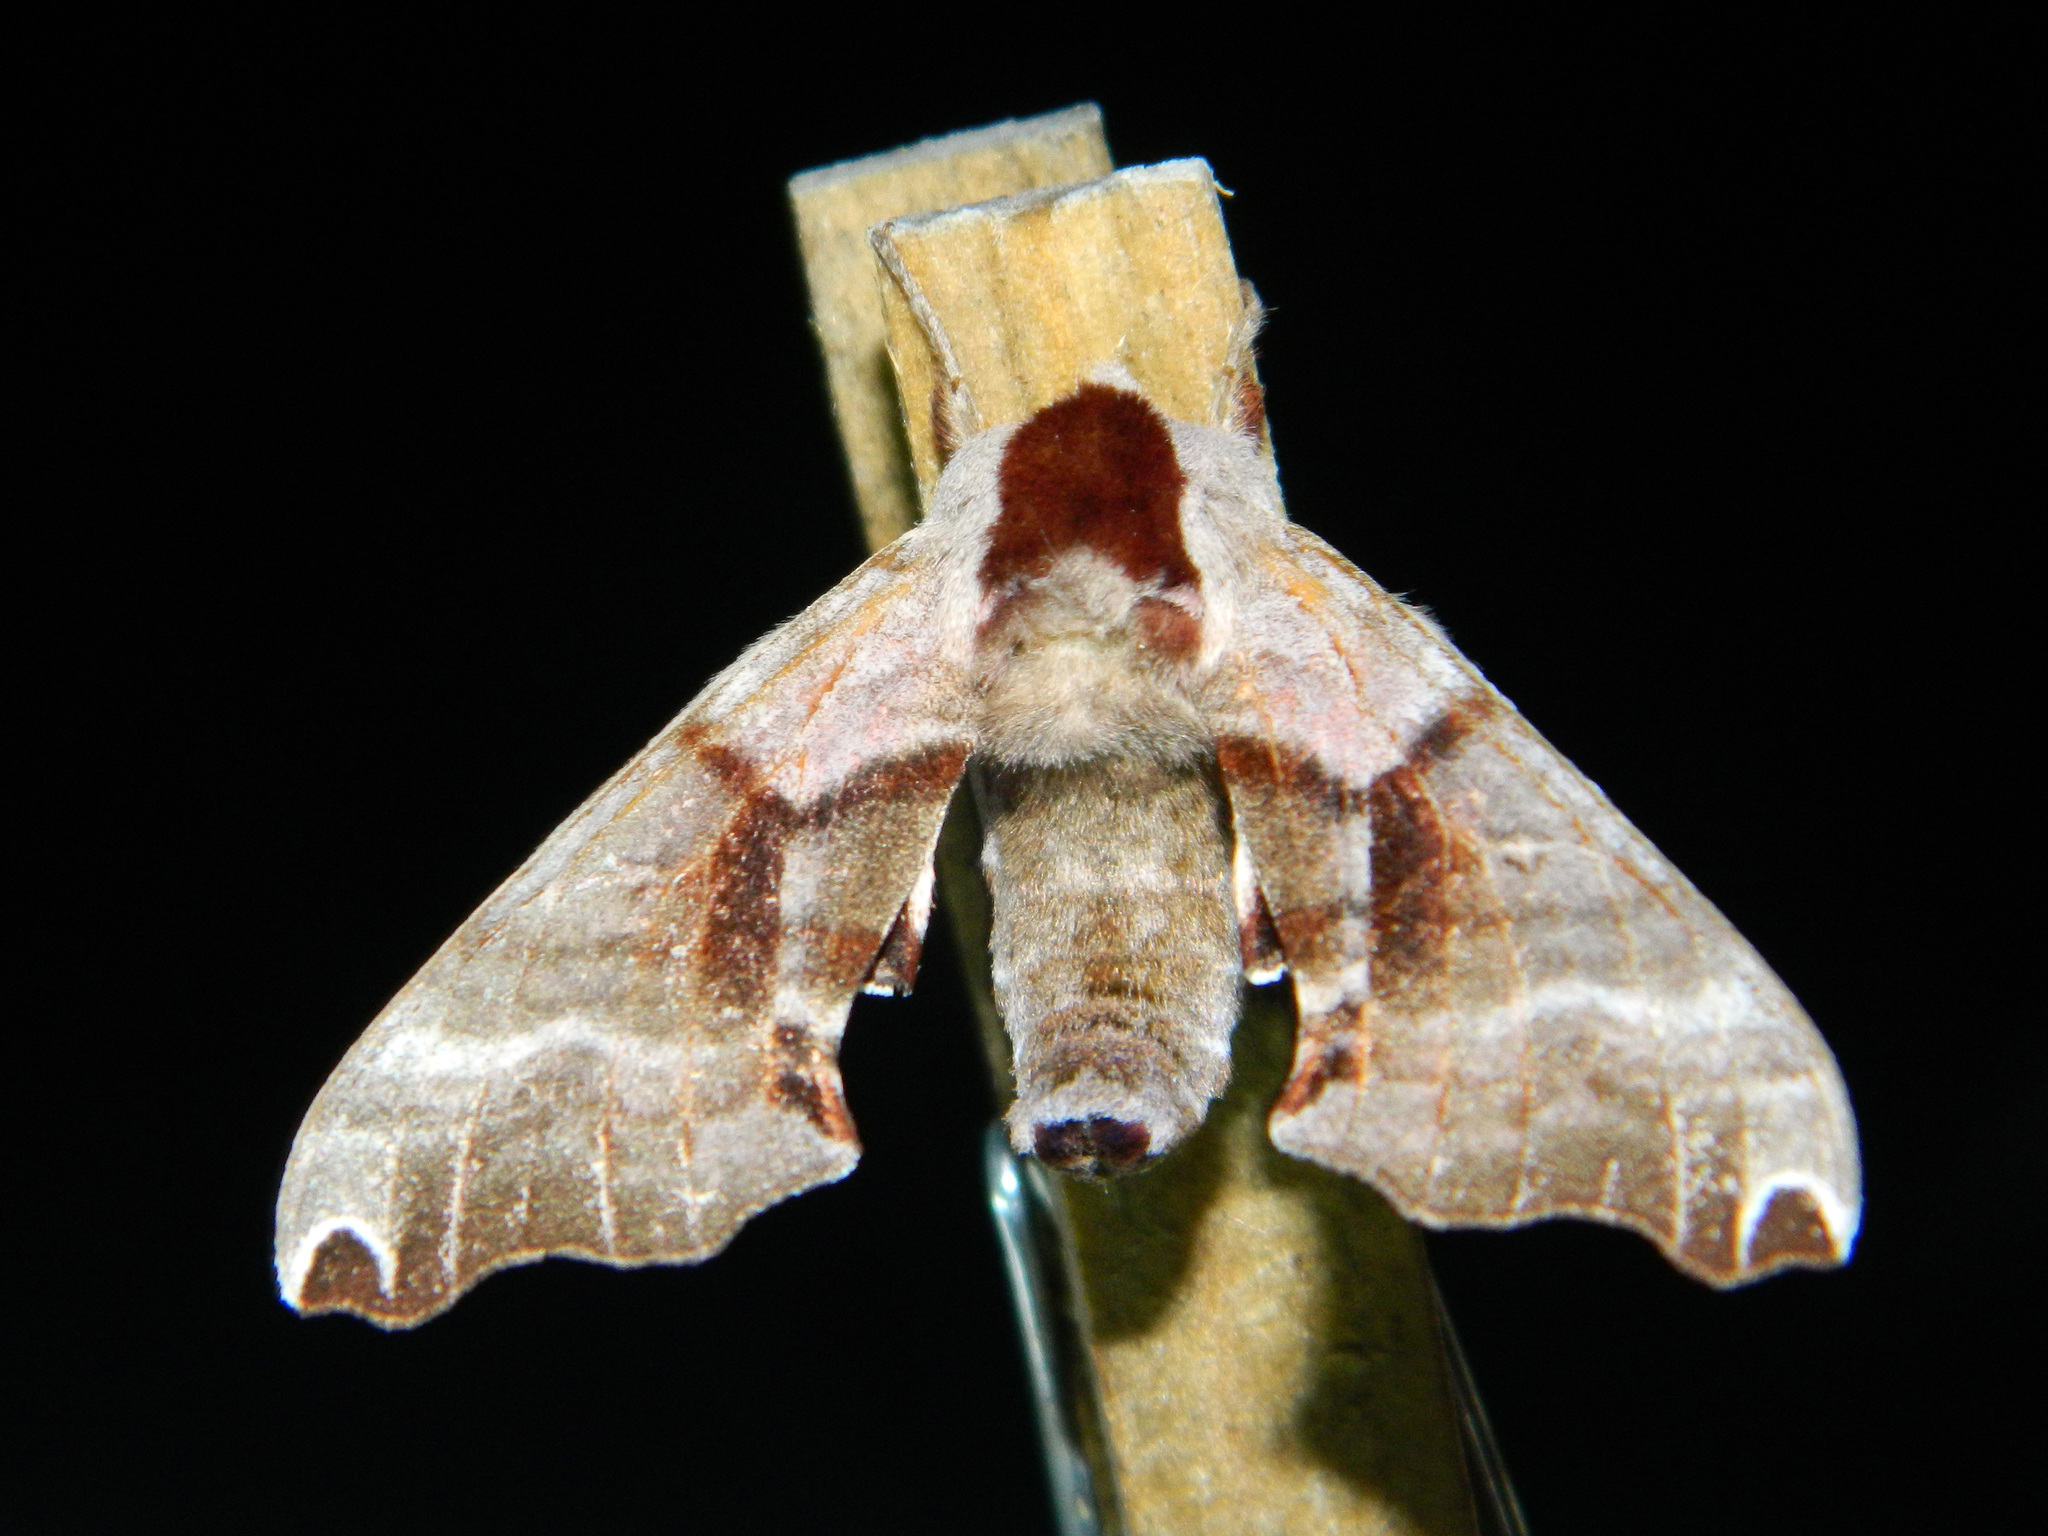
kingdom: Animalia
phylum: Arthropoda
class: Insecta
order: Lepidoptera
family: Sphingidae
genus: Smerinthus
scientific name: Smerinthus jamaicensis
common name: Twin spotted sphinx
